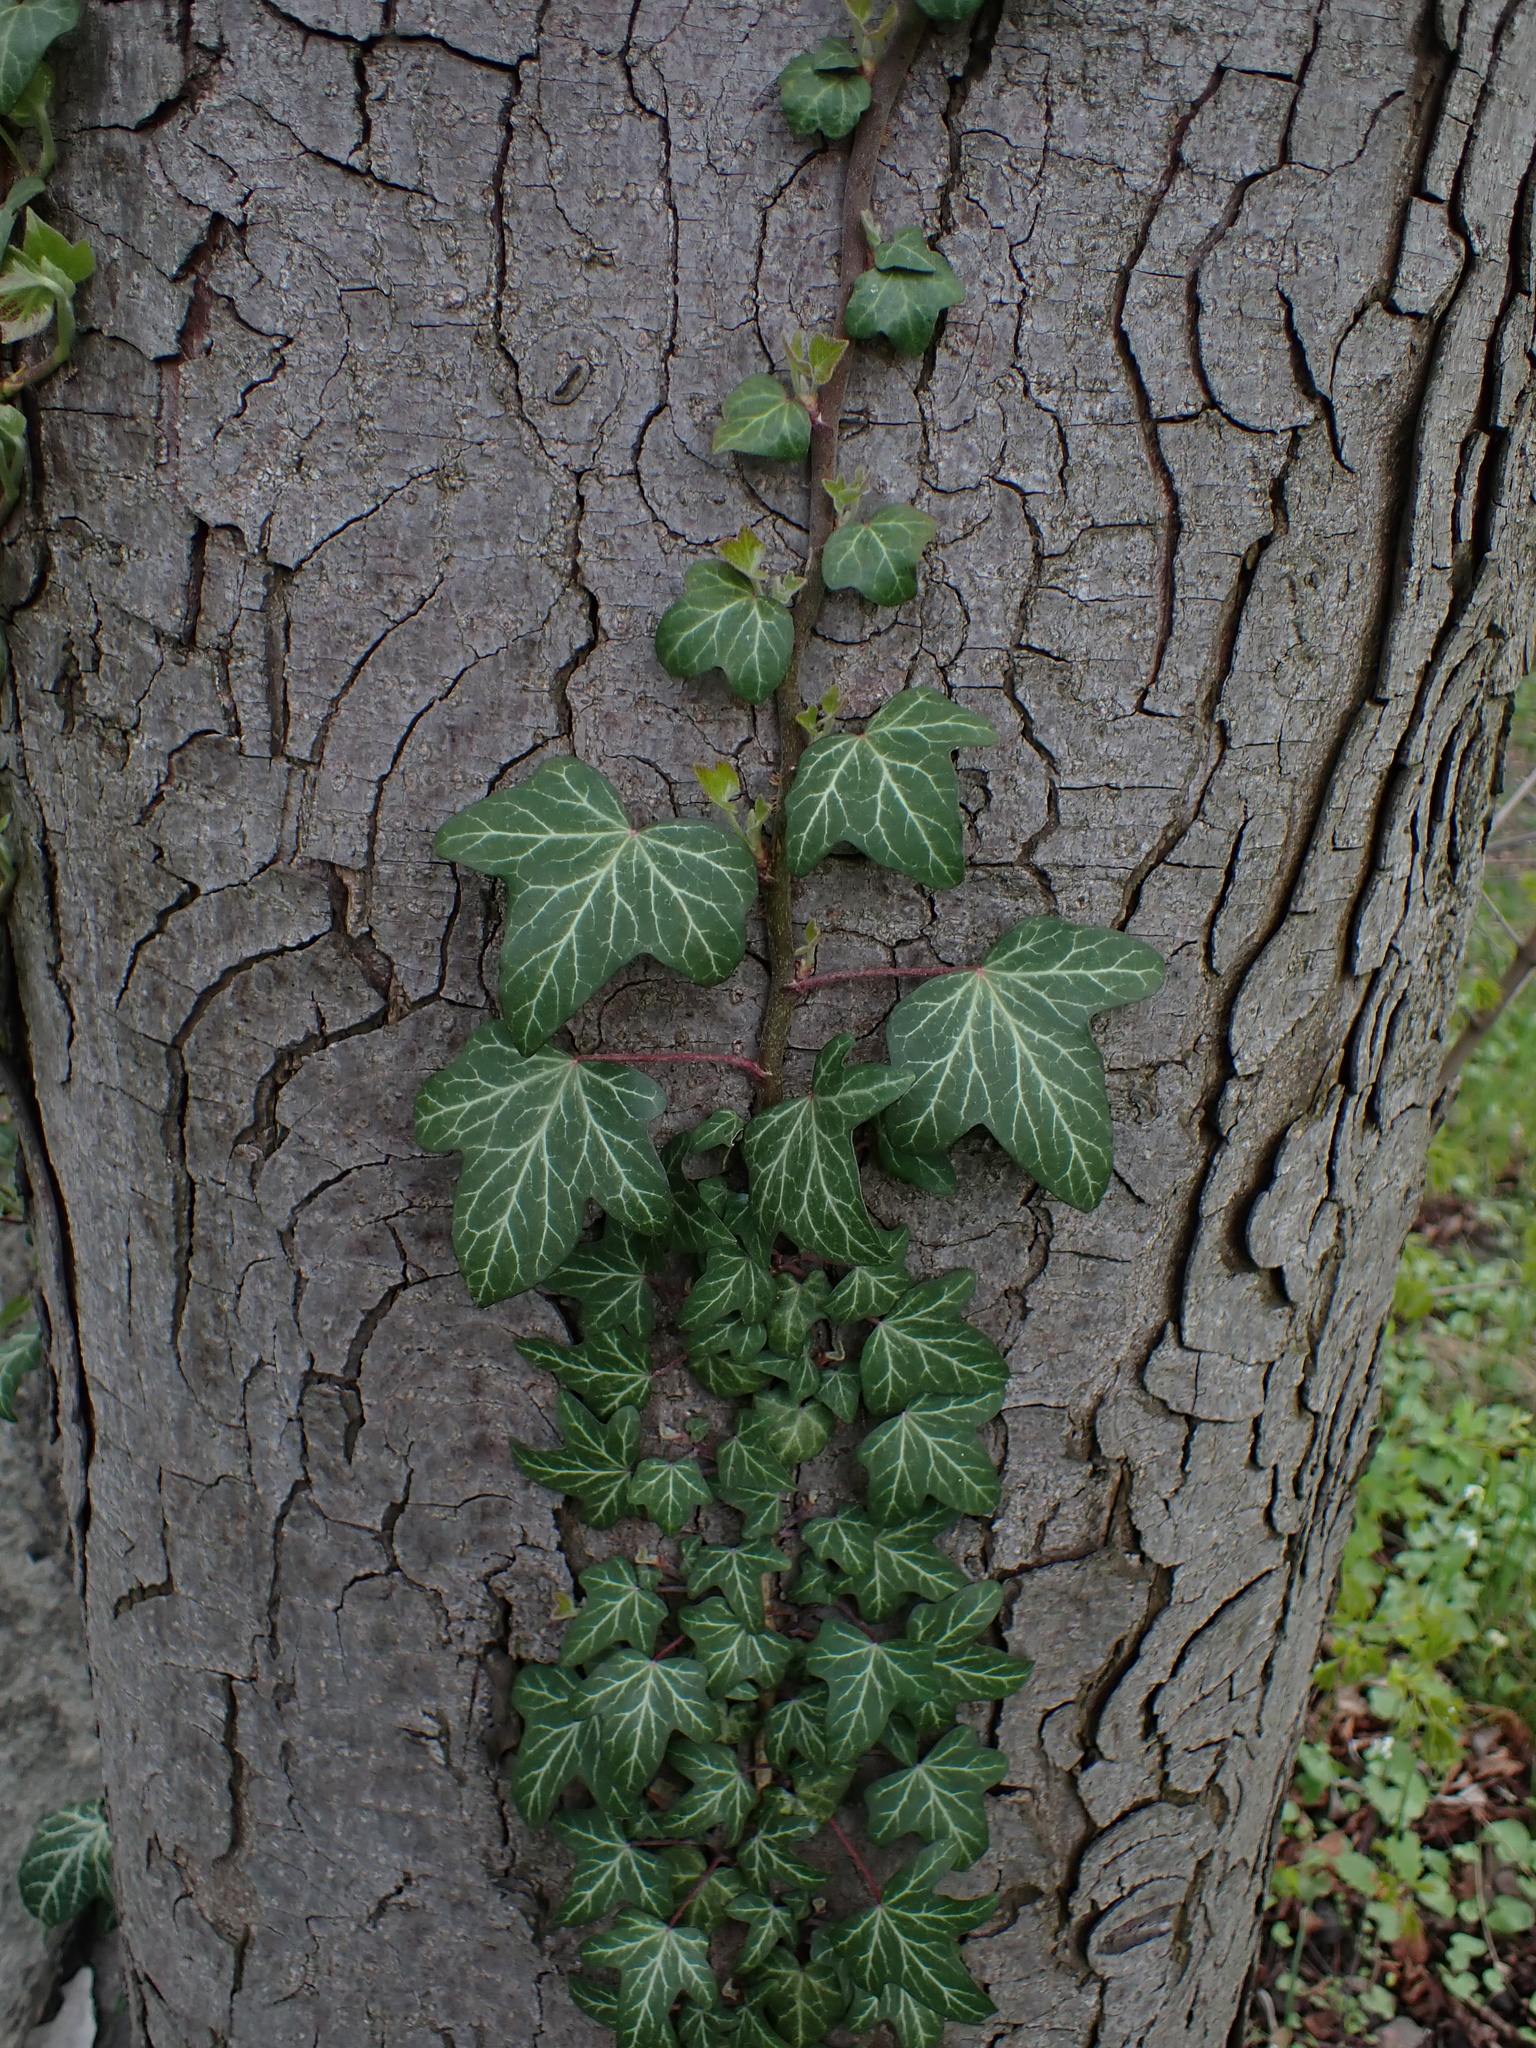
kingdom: Plantae
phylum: Tracheophyta
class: Magnoliopsida
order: Apiales
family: Araliaceae
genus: Hedera
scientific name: Hedera helix
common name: Ivy
